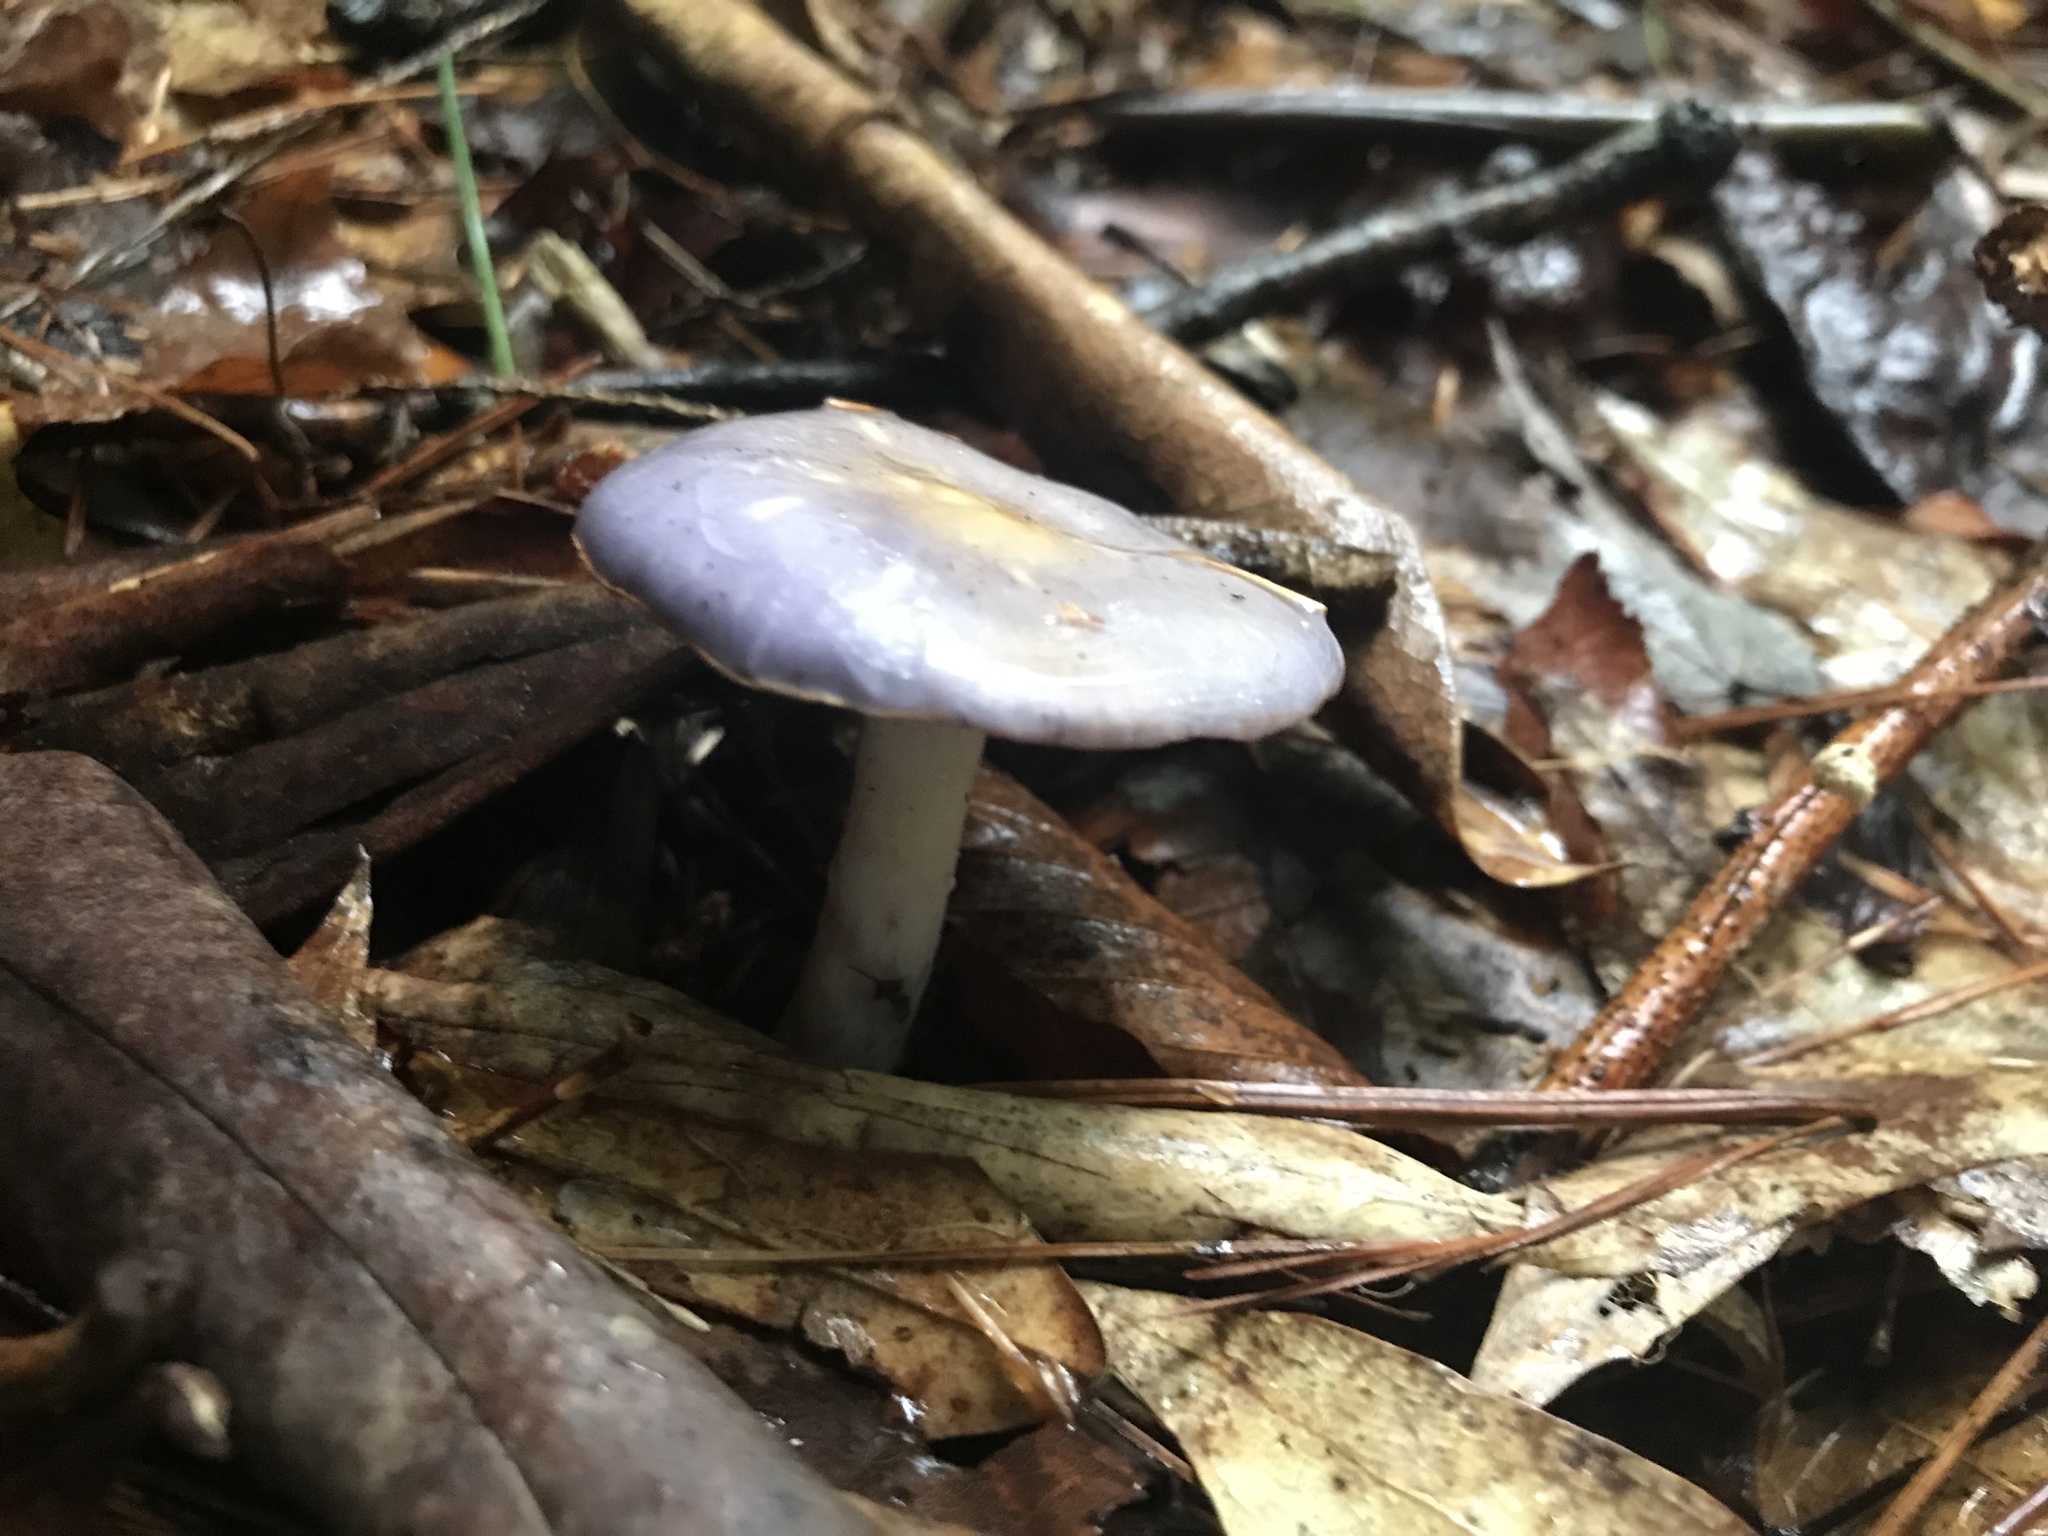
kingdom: Fungi
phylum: Basidiomycota
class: Agaricomycetes
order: Agaricales
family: Cortinariaceae
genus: Cortinarius
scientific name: Cortinarius iodes
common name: Viscid violet cort
